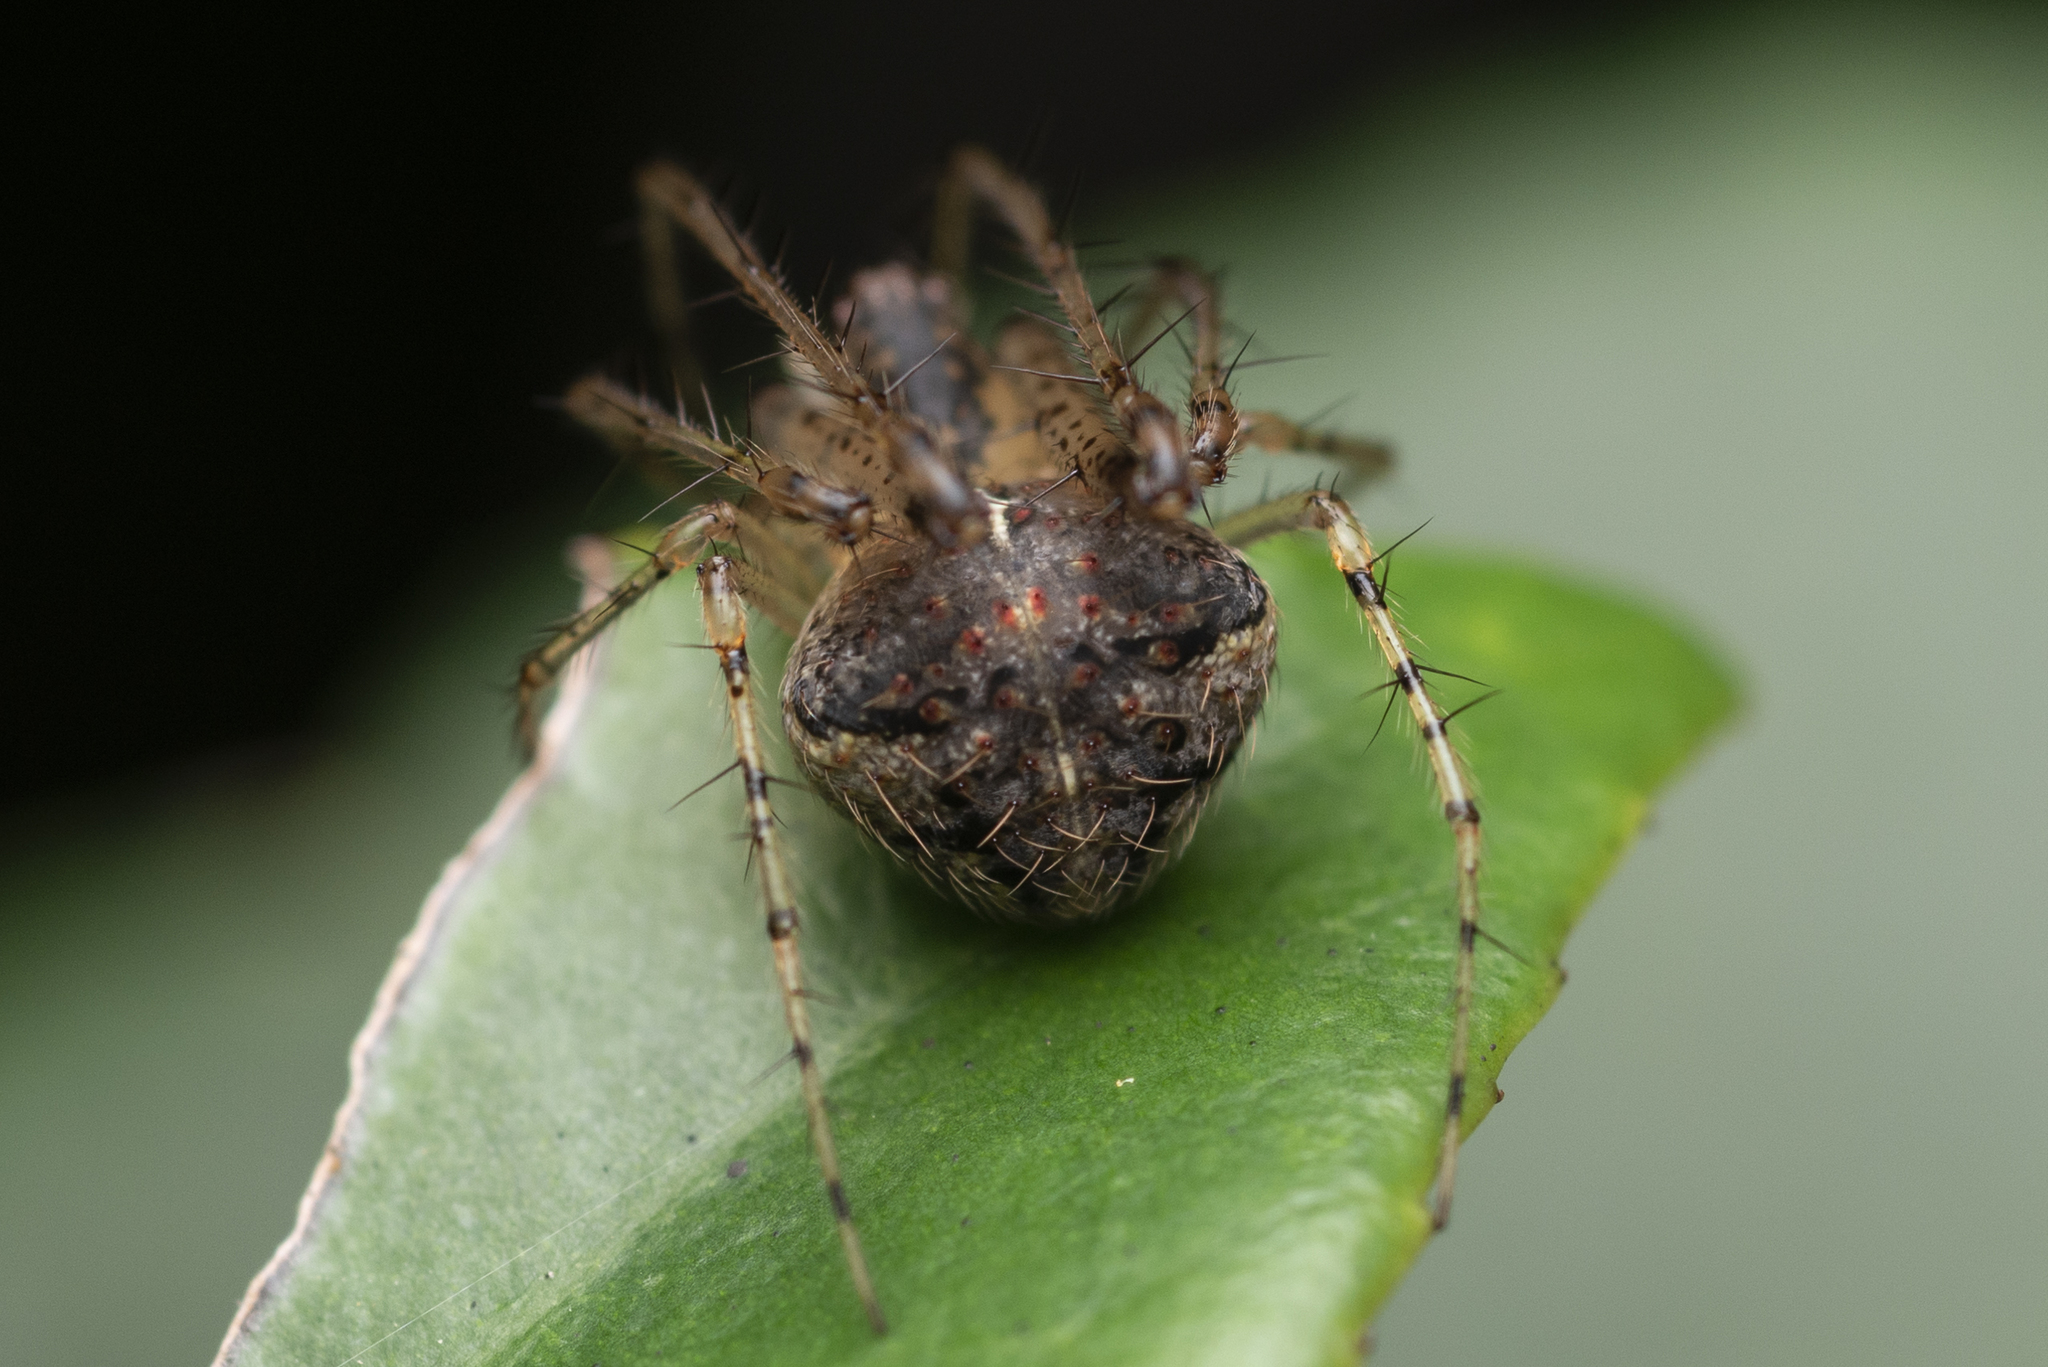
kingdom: Animalia
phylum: Arthropoda
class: Arachnida
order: Araneae
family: Mimetidae
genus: Mimetus
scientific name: Mimetus testaceus
